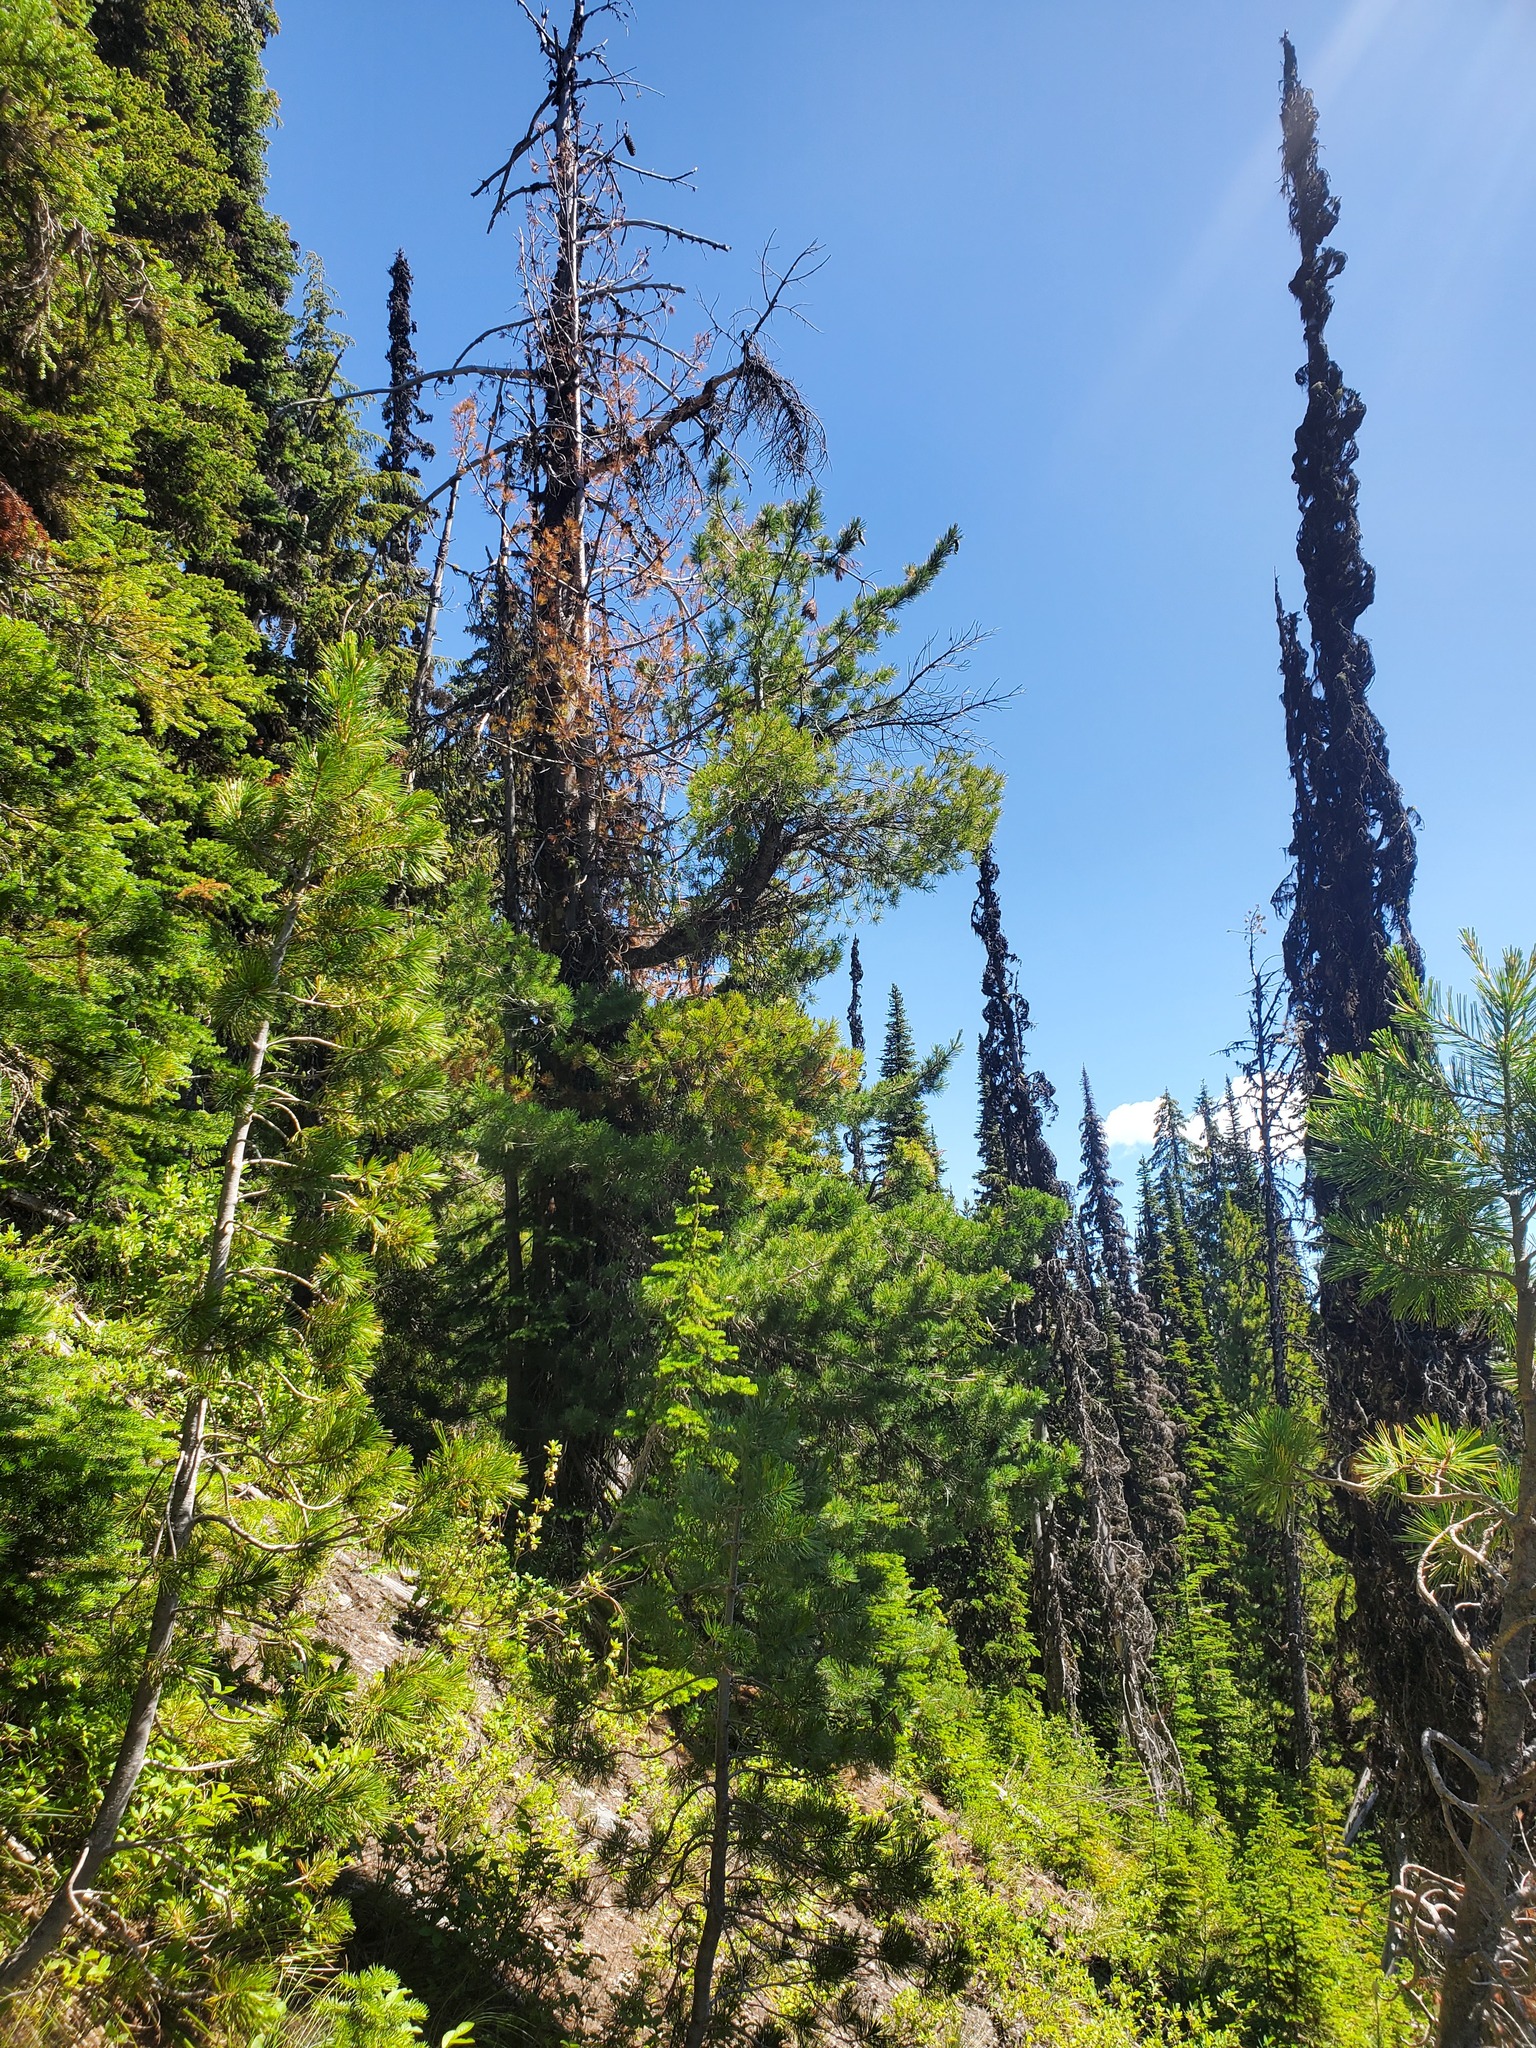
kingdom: Plantae
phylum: Tracheophyta
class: Pinopsida
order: Pinales
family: Pinaceae
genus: Pinus
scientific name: Pinus albicaulis
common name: Whitebark pine
